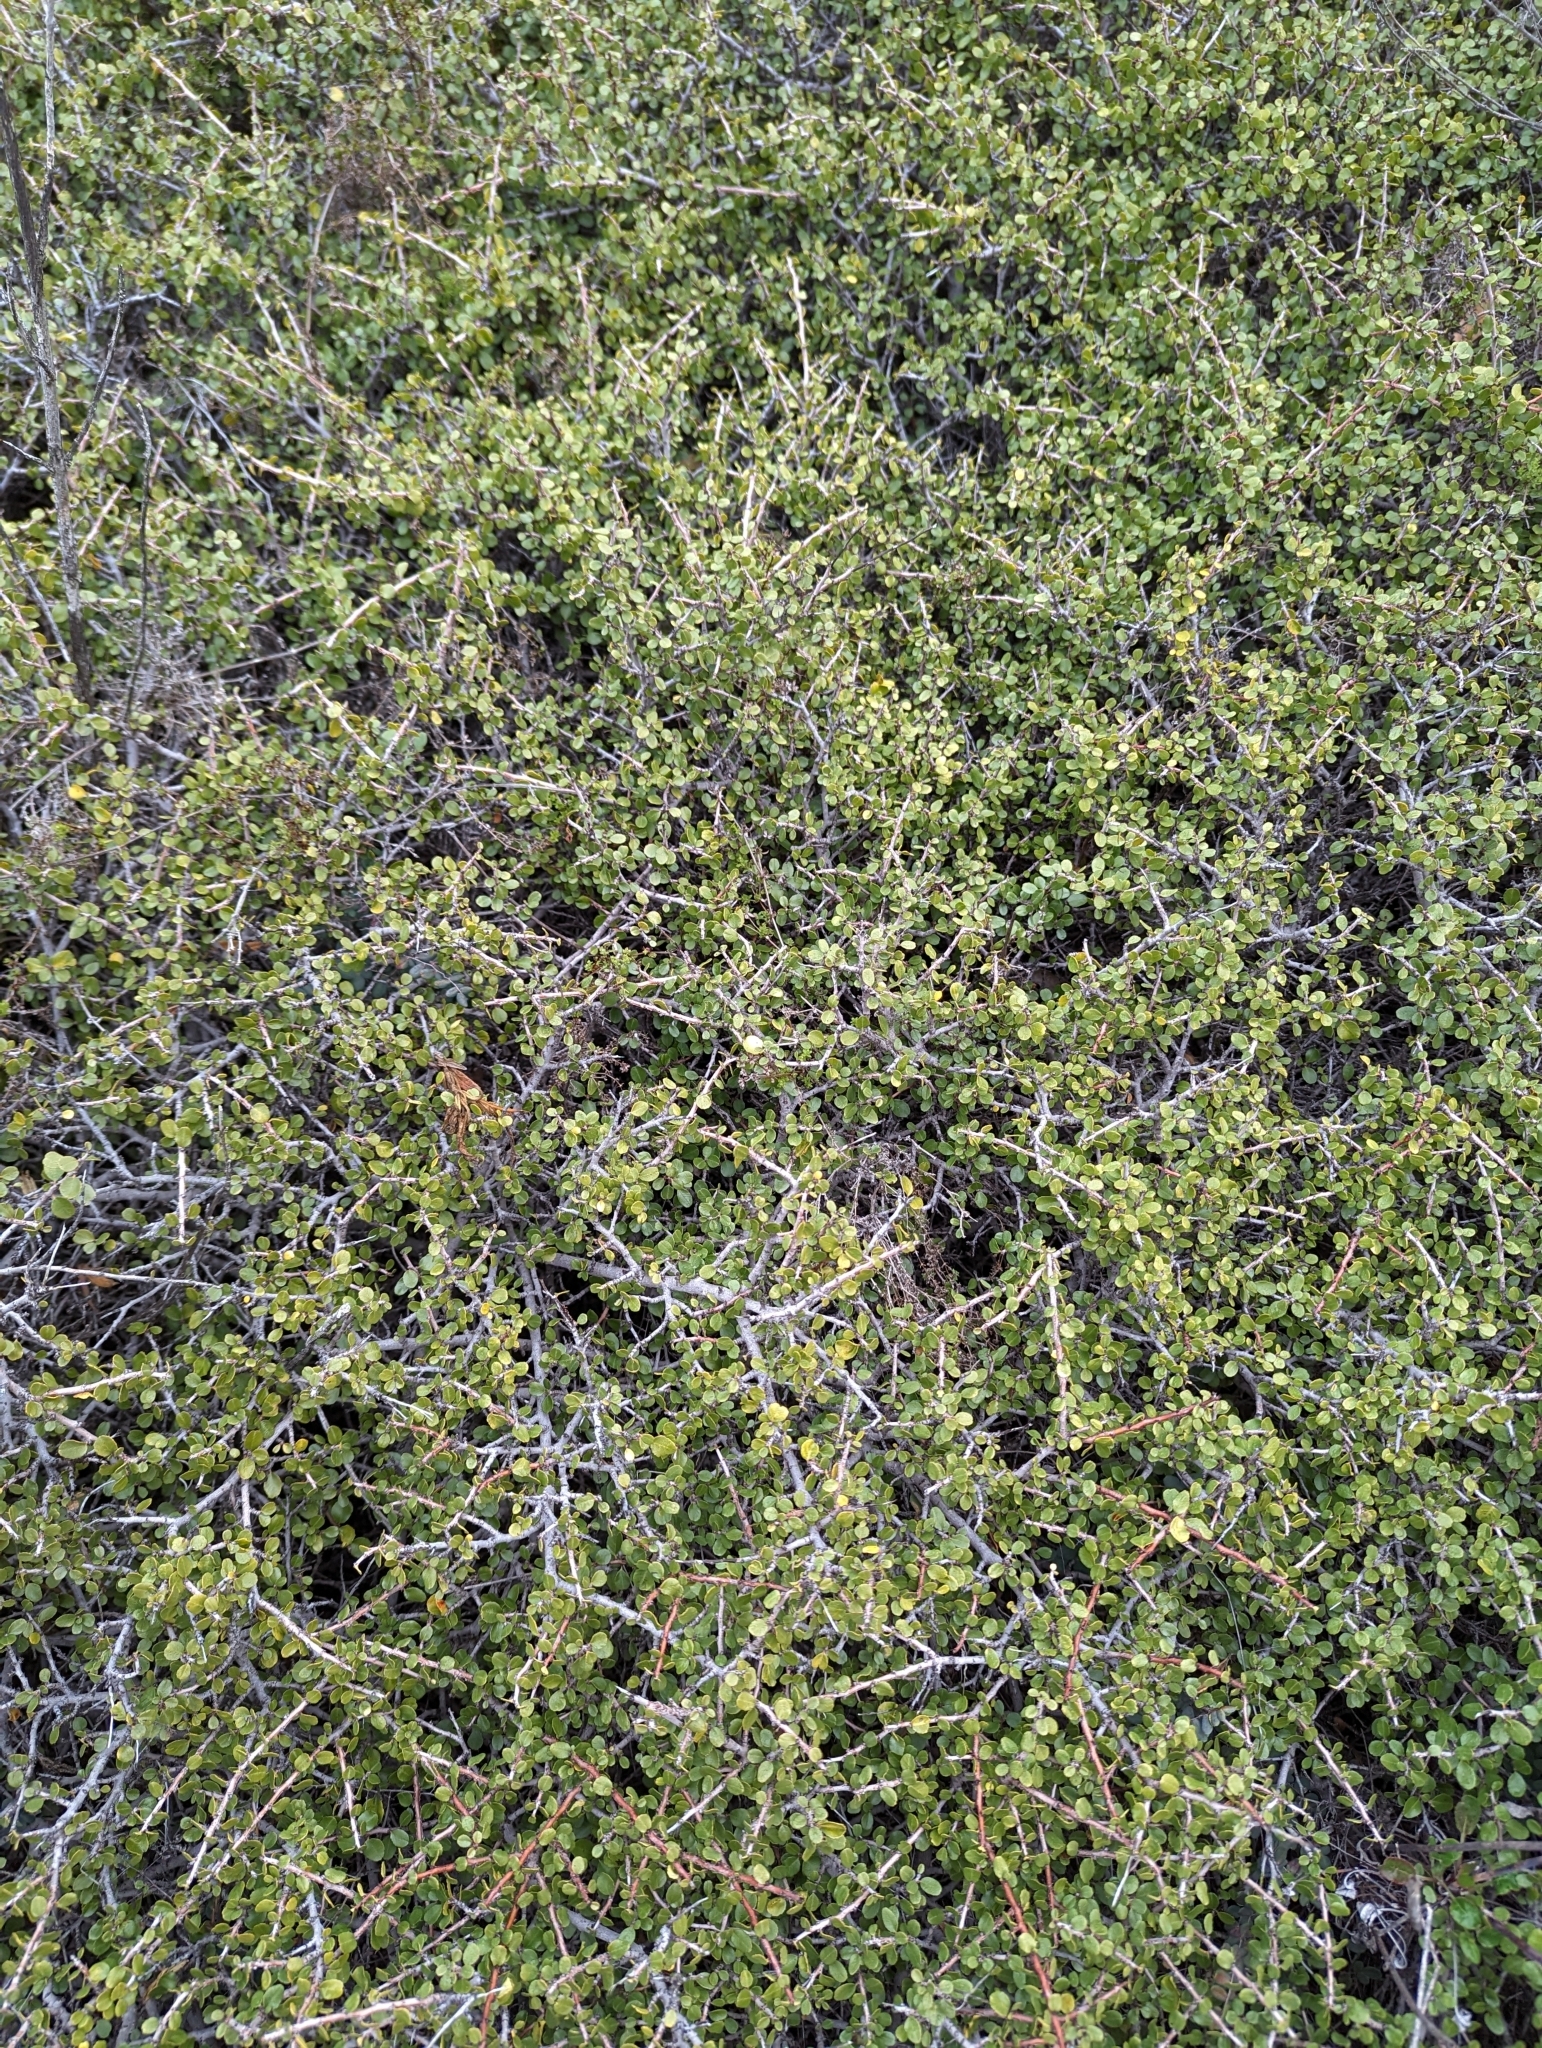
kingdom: Plantae
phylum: Tracheophyta
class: Magnoliopsida
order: Rosales
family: Rhamnaceae
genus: Endotropis
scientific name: Endotropis crocea
